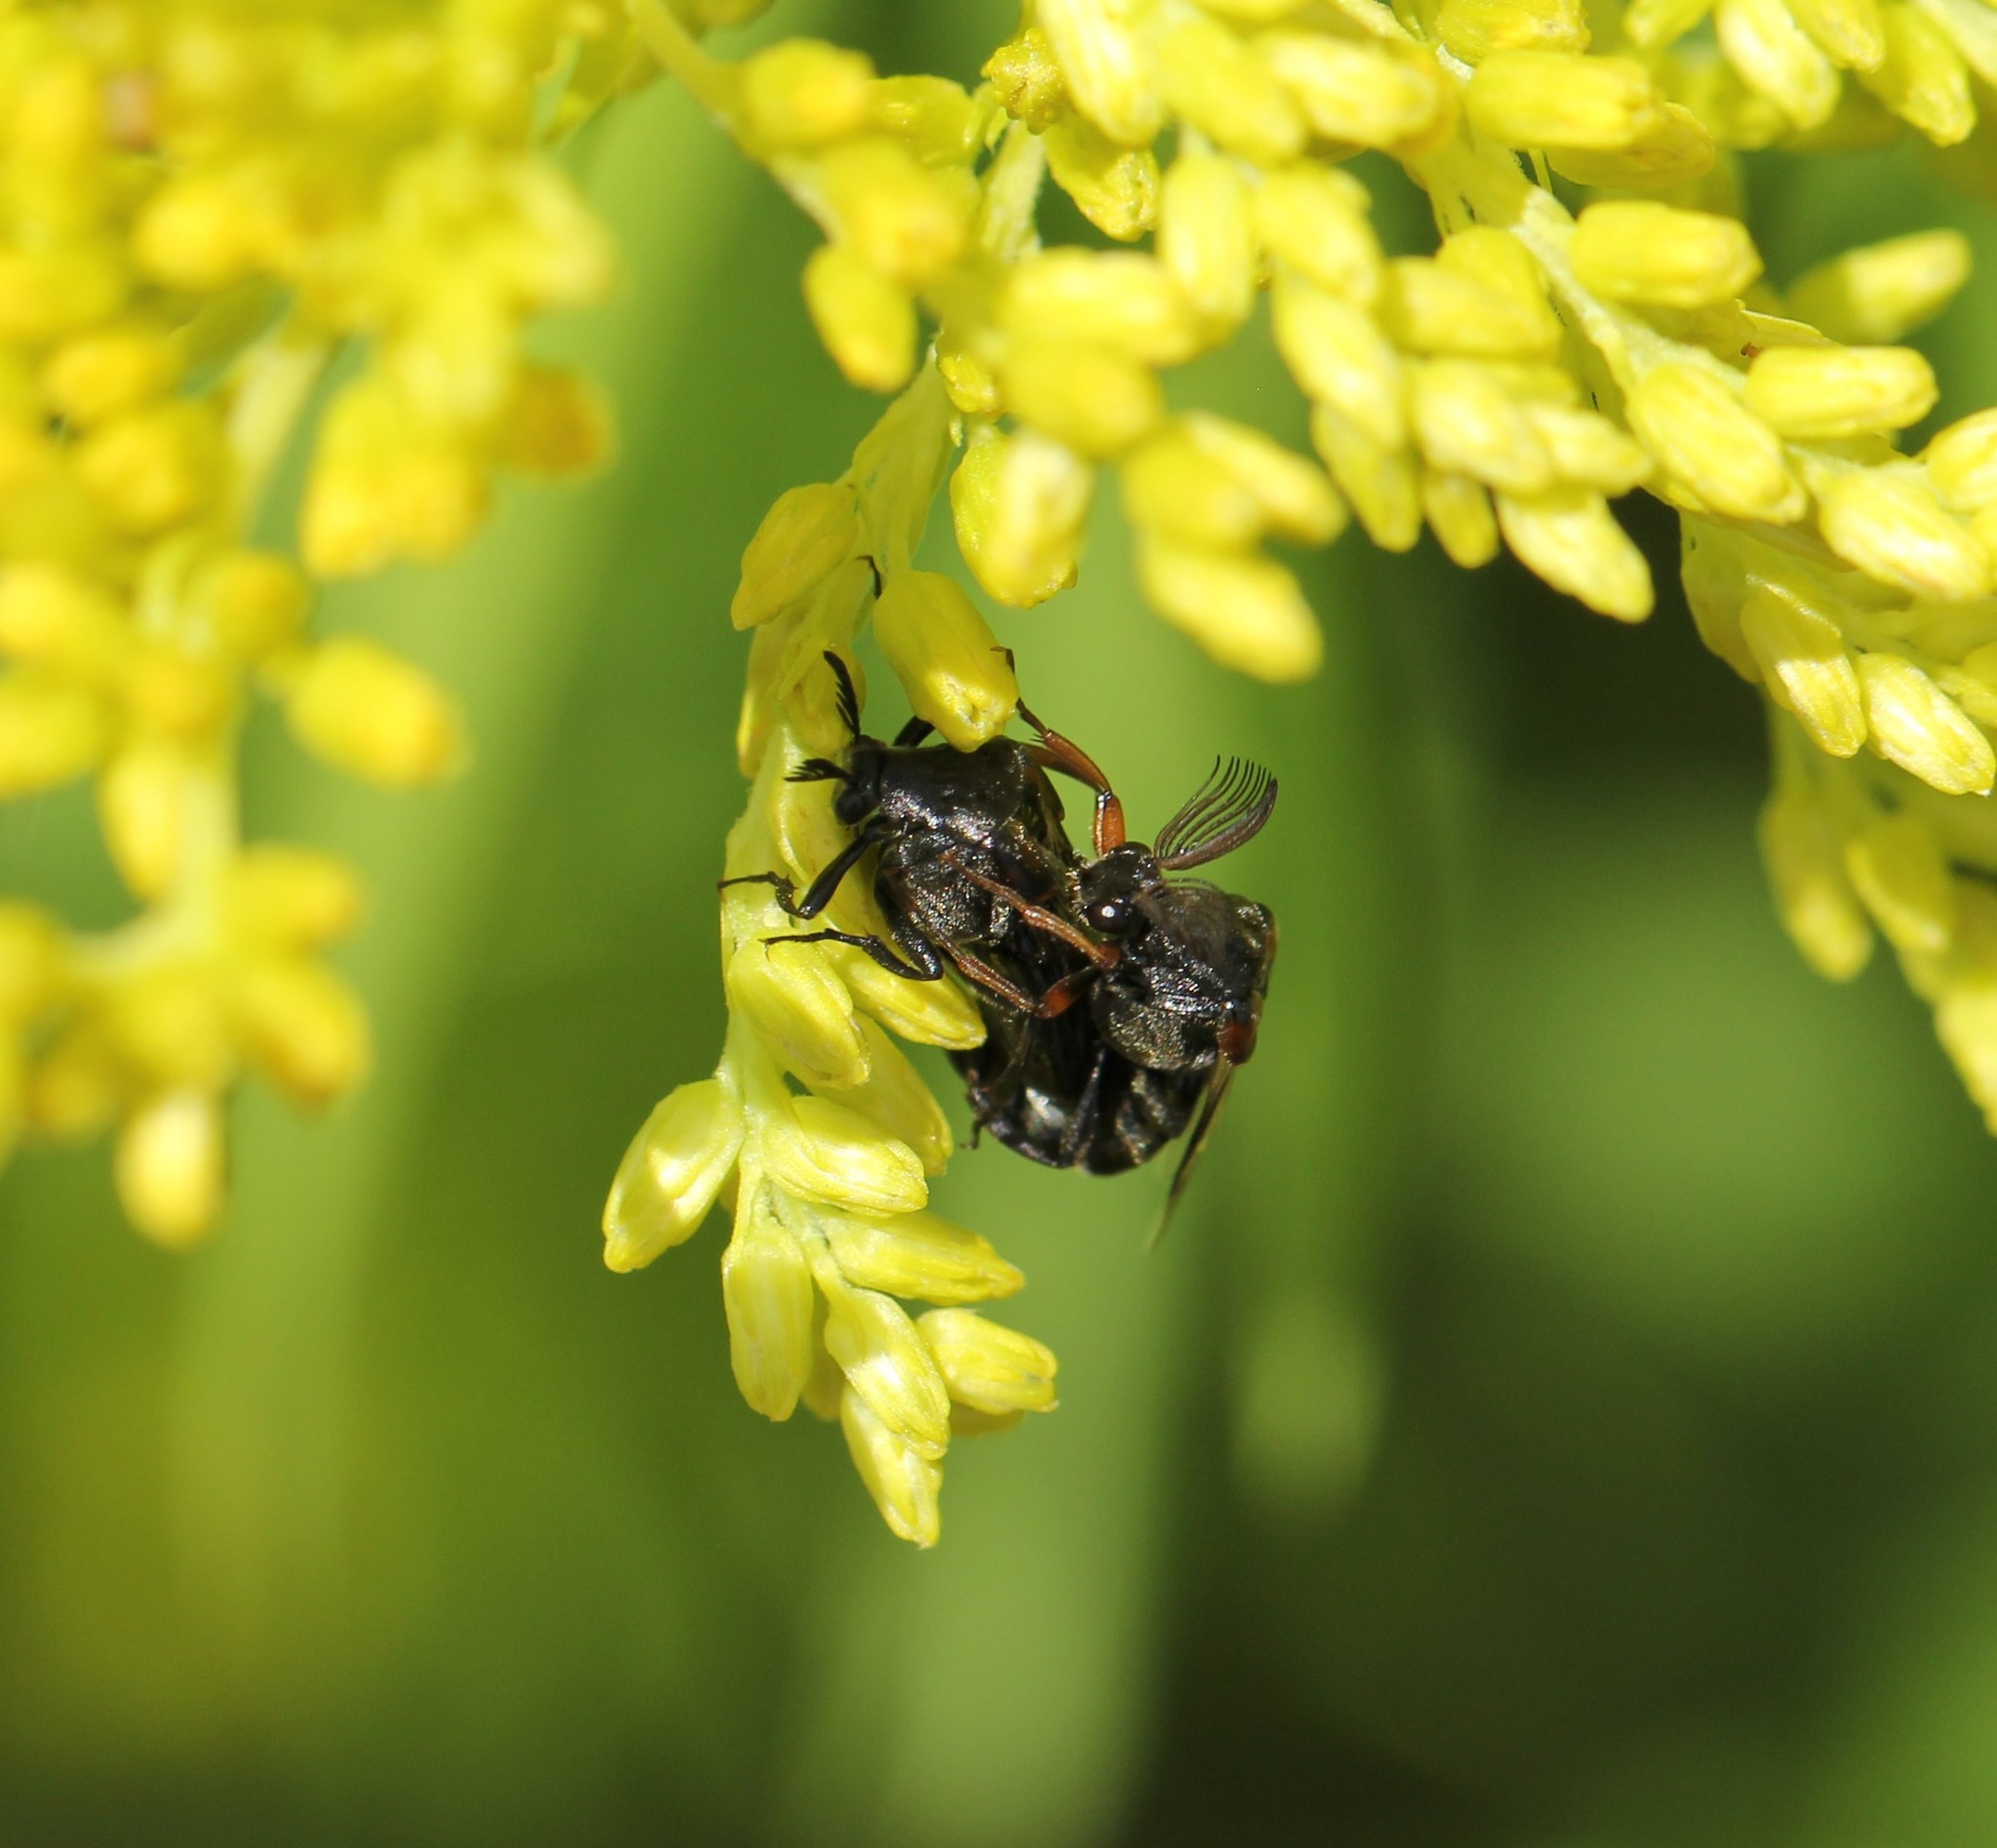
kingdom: Animalia
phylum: Arthropoda
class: Insecta
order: Coleoptera
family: Ripiphoridae
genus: Ripiphorus
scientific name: Ripiphorus
